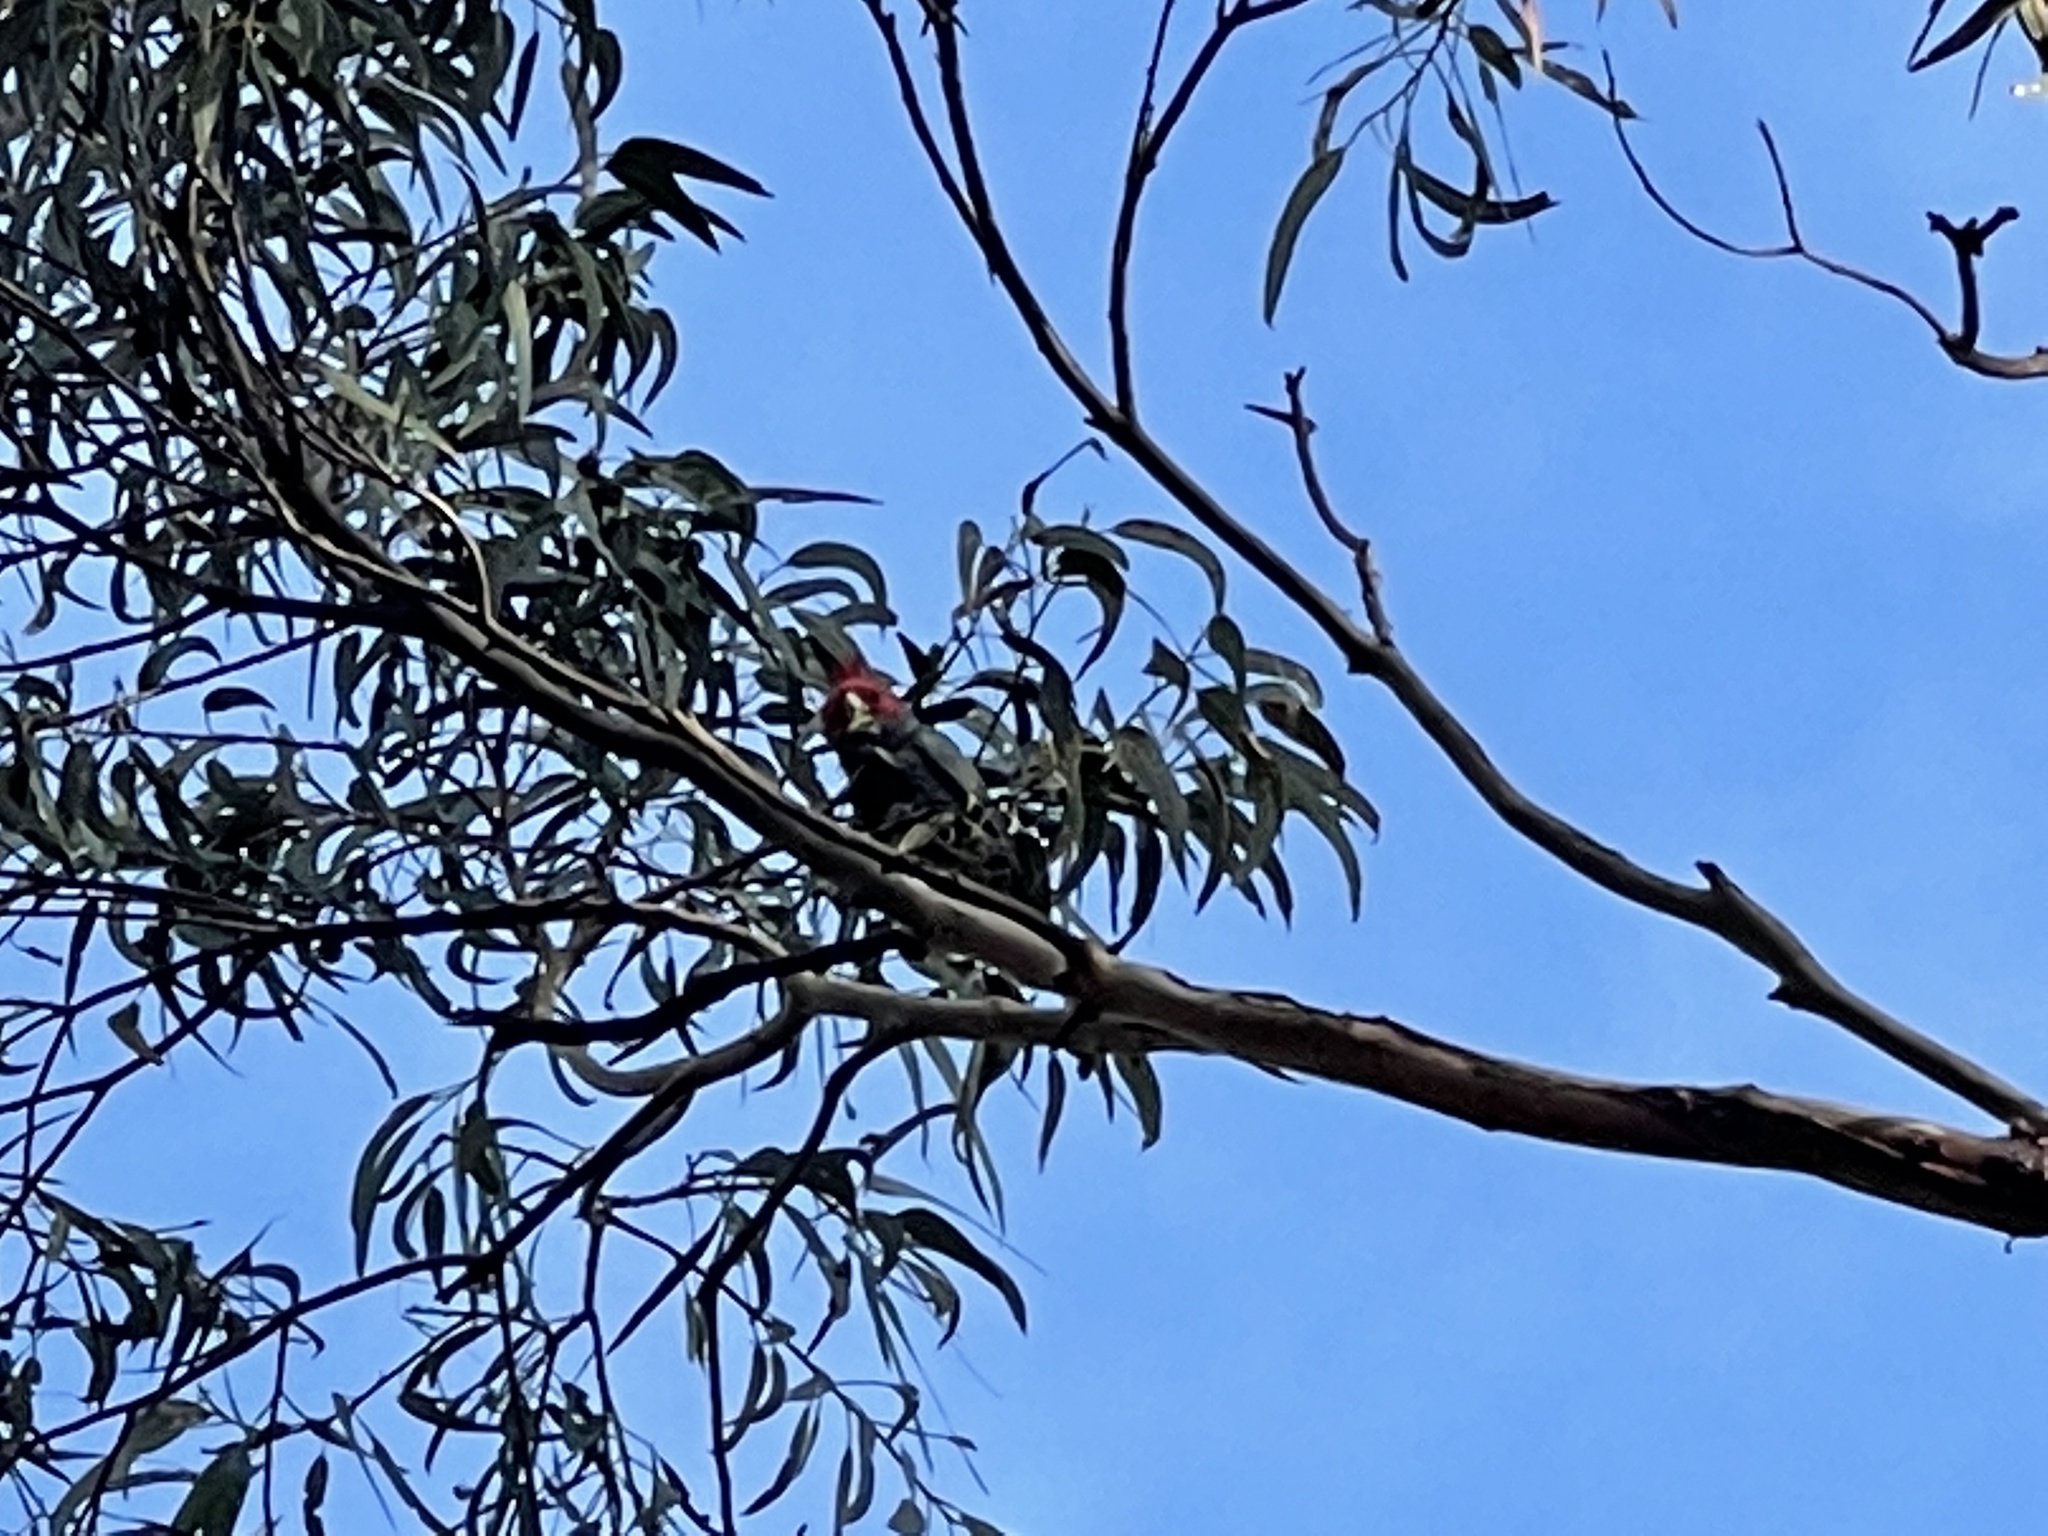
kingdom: Animalia
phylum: Chordata
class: Aves
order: Psittaciformes
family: Psittacidae
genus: Callocephalon
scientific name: Callocephalon fimbriatum
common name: Gang-gang cockatoo
